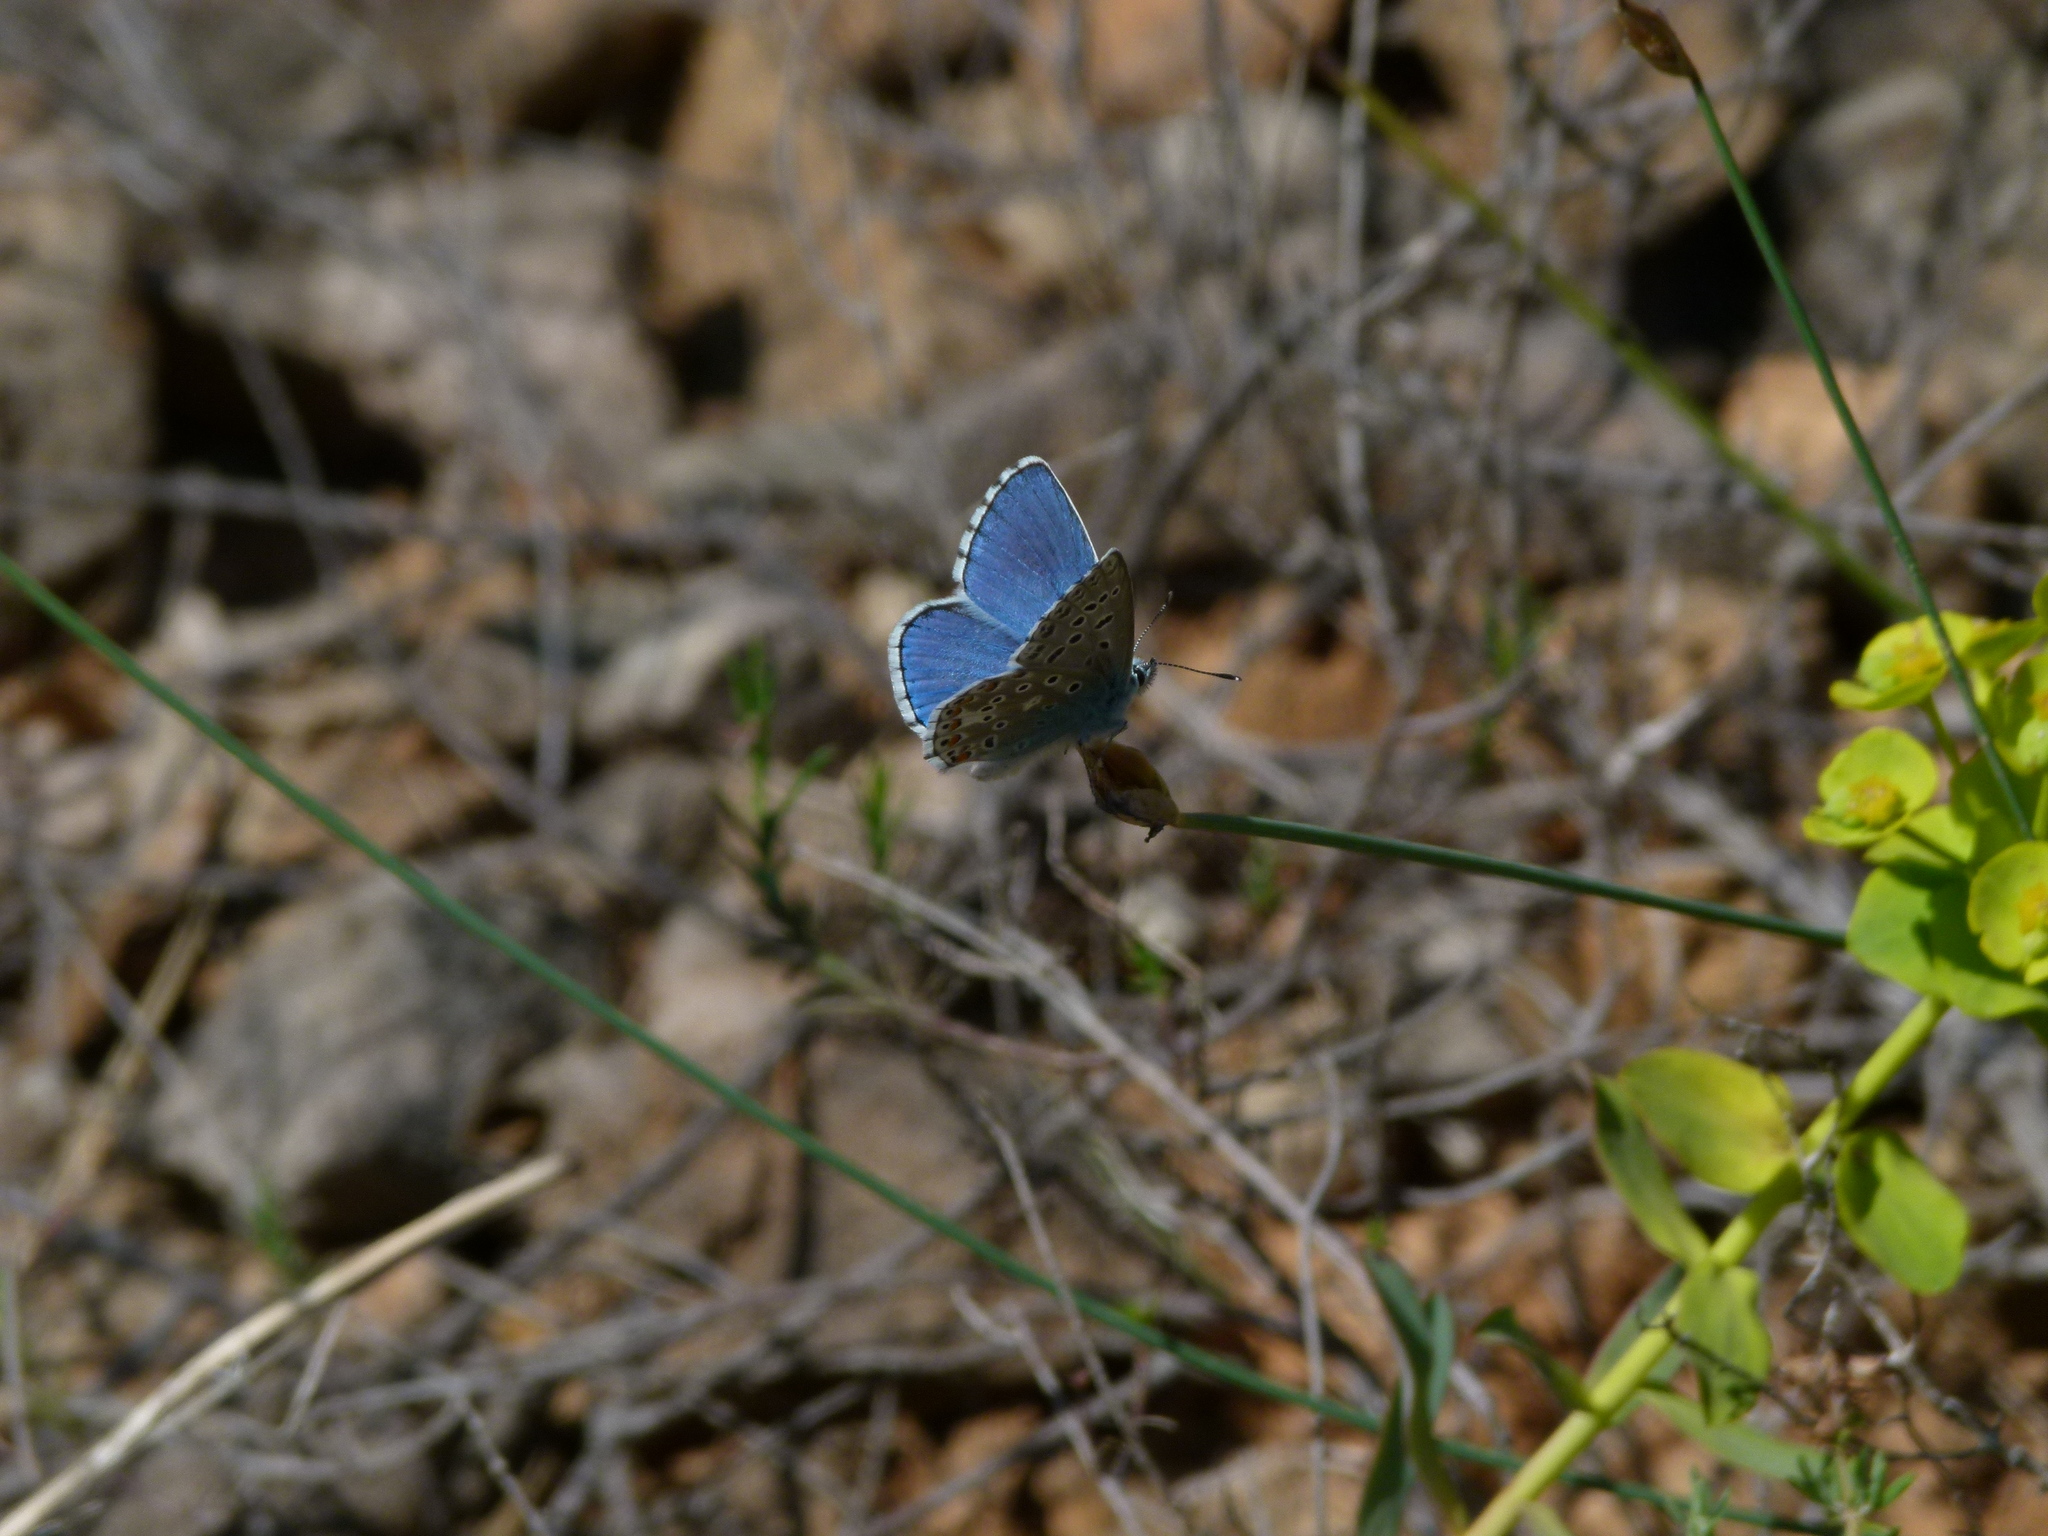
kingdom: Animalia
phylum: Arthropoda
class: Insecta
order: Lepidoptera
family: Lycaenidae
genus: Lysandra
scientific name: Lysandra bellargus
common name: Adonis blue
